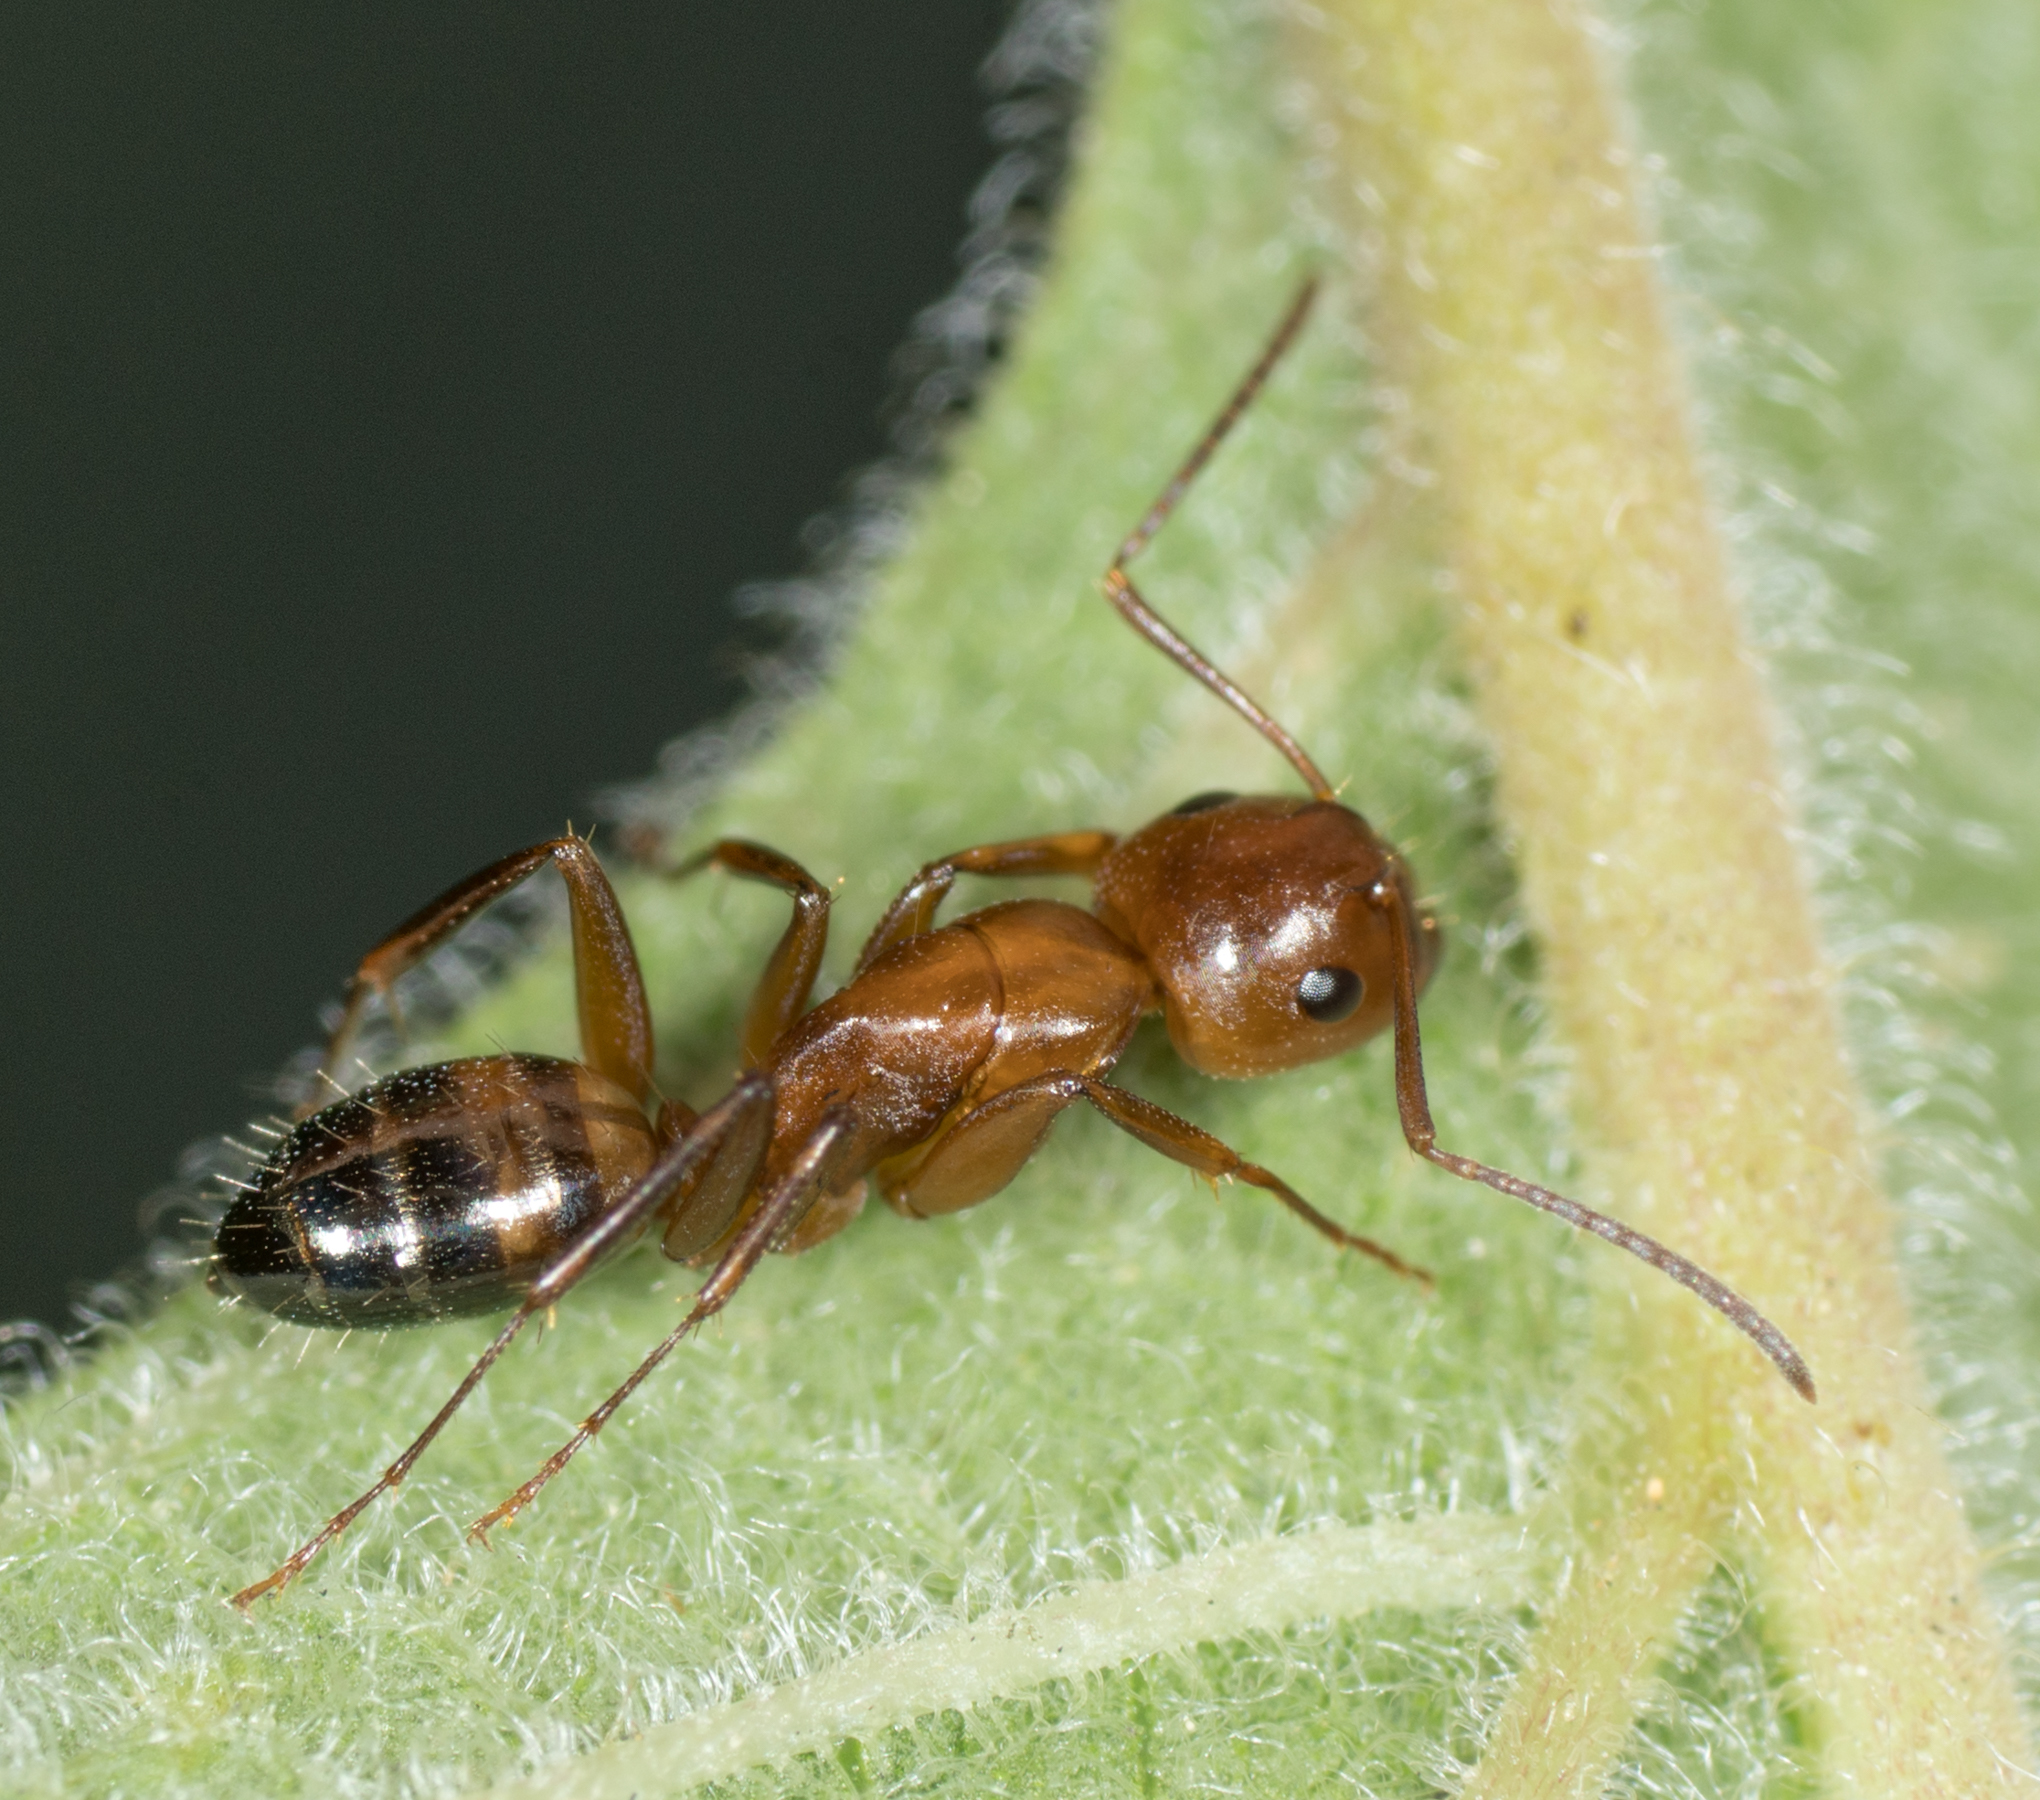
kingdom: Animalia
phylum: Arthropoda
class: Insecta
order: Hymenoptera
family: Formicidae
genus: Camponotus
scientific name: Camponotus snellingi
